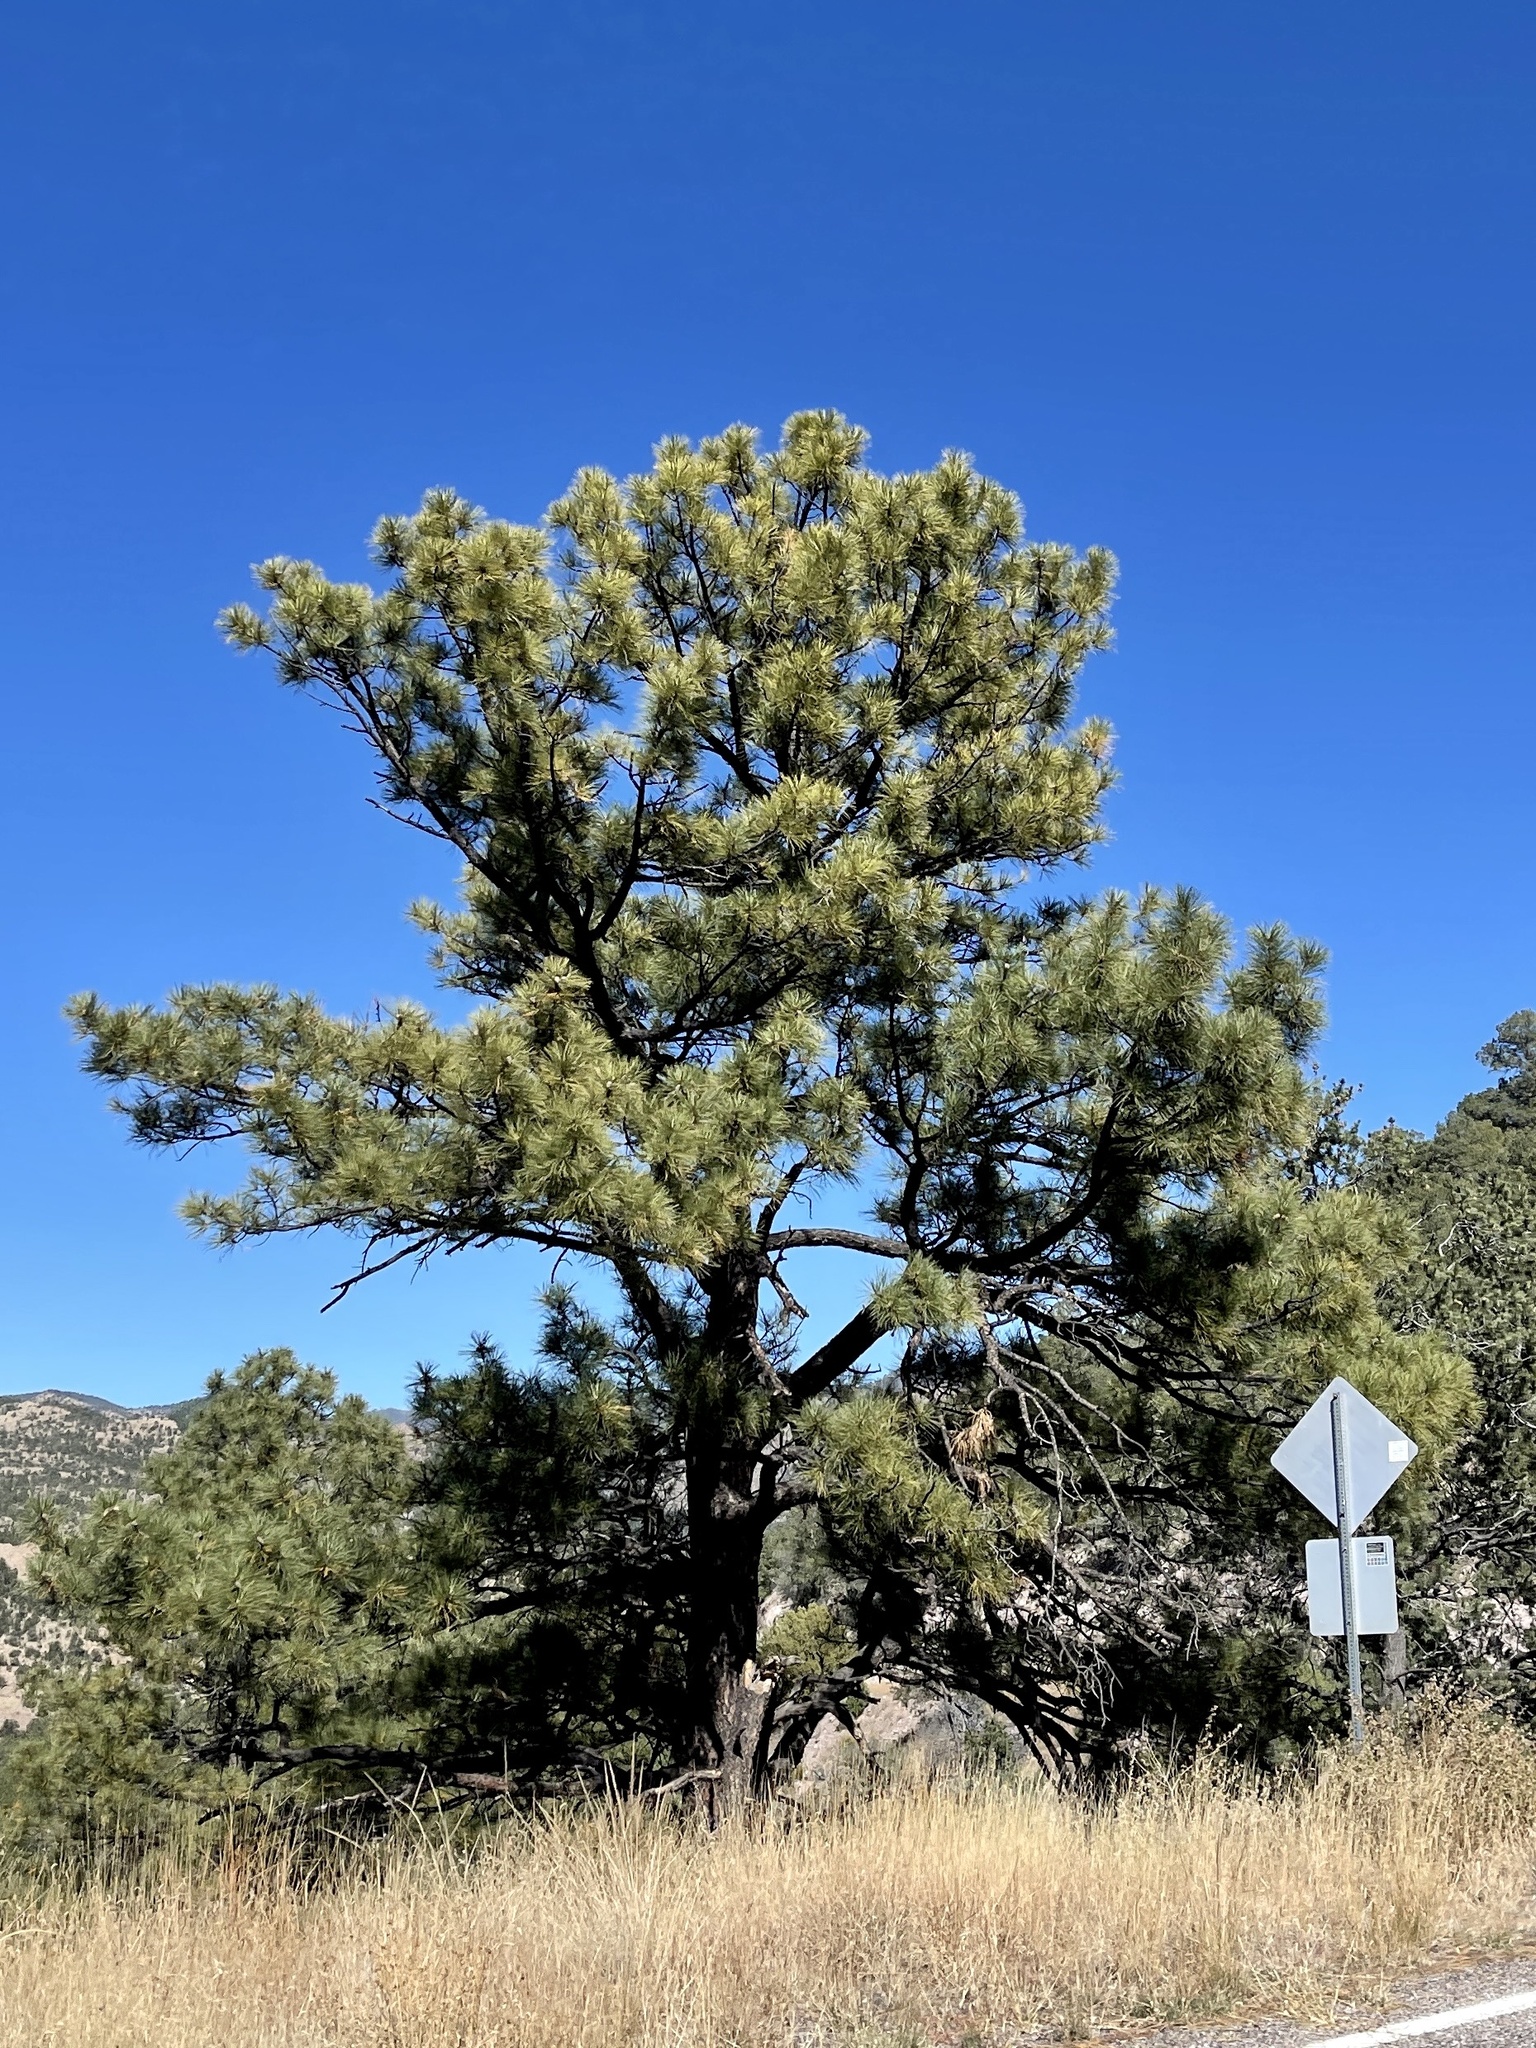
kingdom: Plantae
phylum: Tracheophyta
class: Pinopsida
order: Pinales
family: Pinaceae
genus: Pinus
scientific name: Pinus ponderosa
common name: Western yellow-pine
